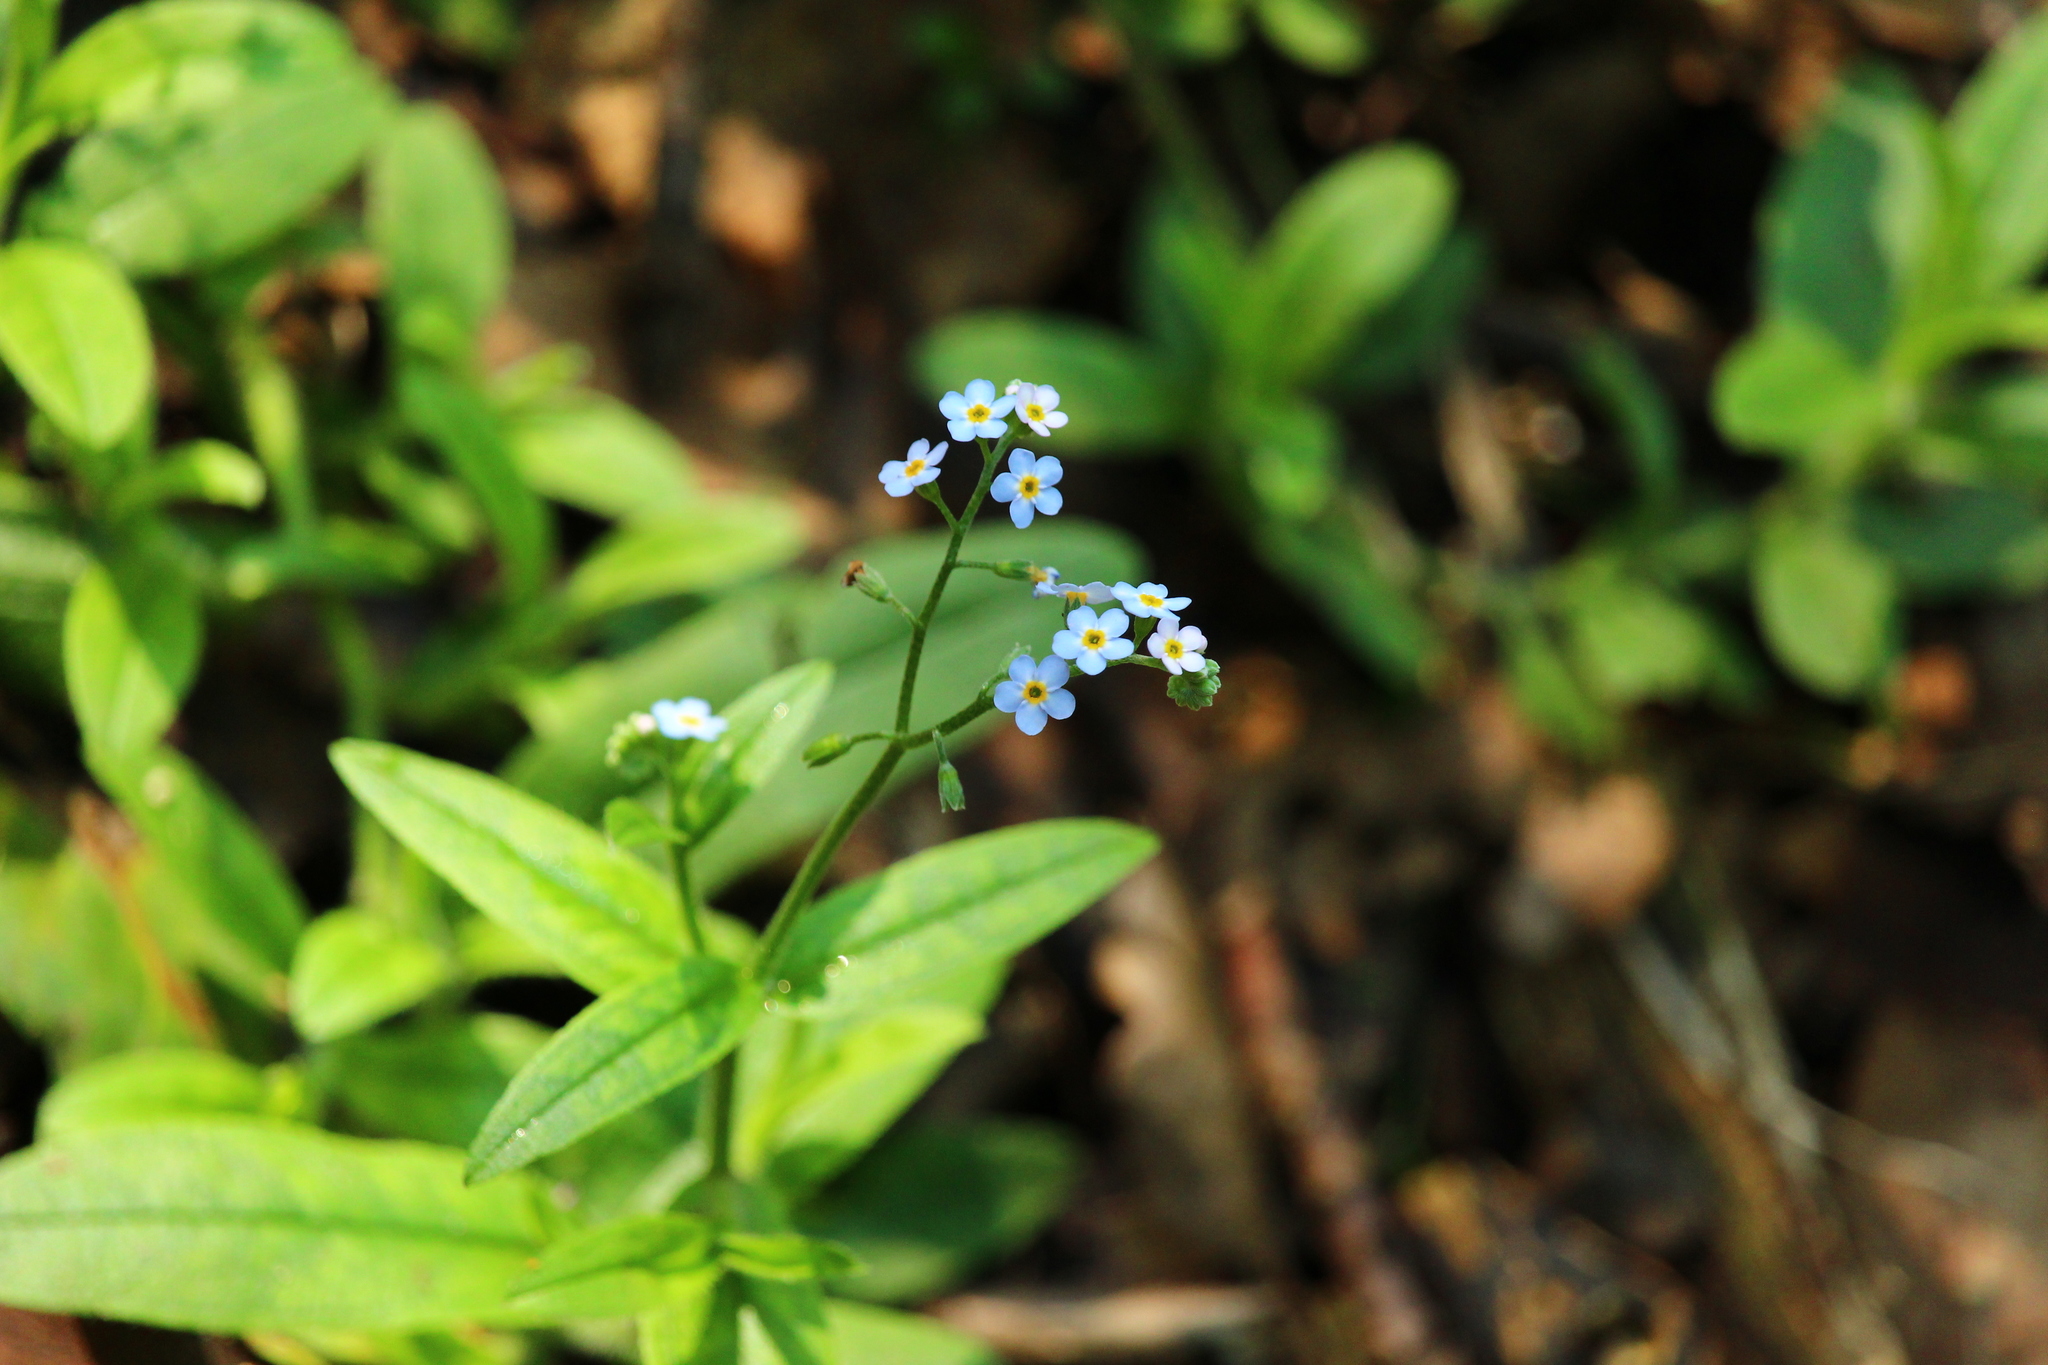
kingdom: Plantae
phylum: Tracheophyta
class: Magnoliopsida
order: Boraginales
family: Boraginaceae
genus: Myosotis
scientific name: Myosotis scorpioides
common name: Water forget-me-not
